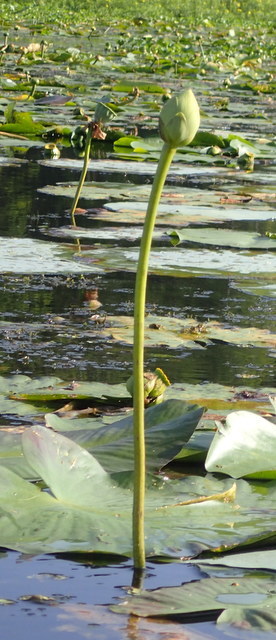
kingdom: Plantae
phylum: Tracheophyta
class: Magnoliopsida
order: Proteales
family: Nelumbonaceae
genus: Nelumbo
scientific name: Nelumbo lutea
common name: American lotus
